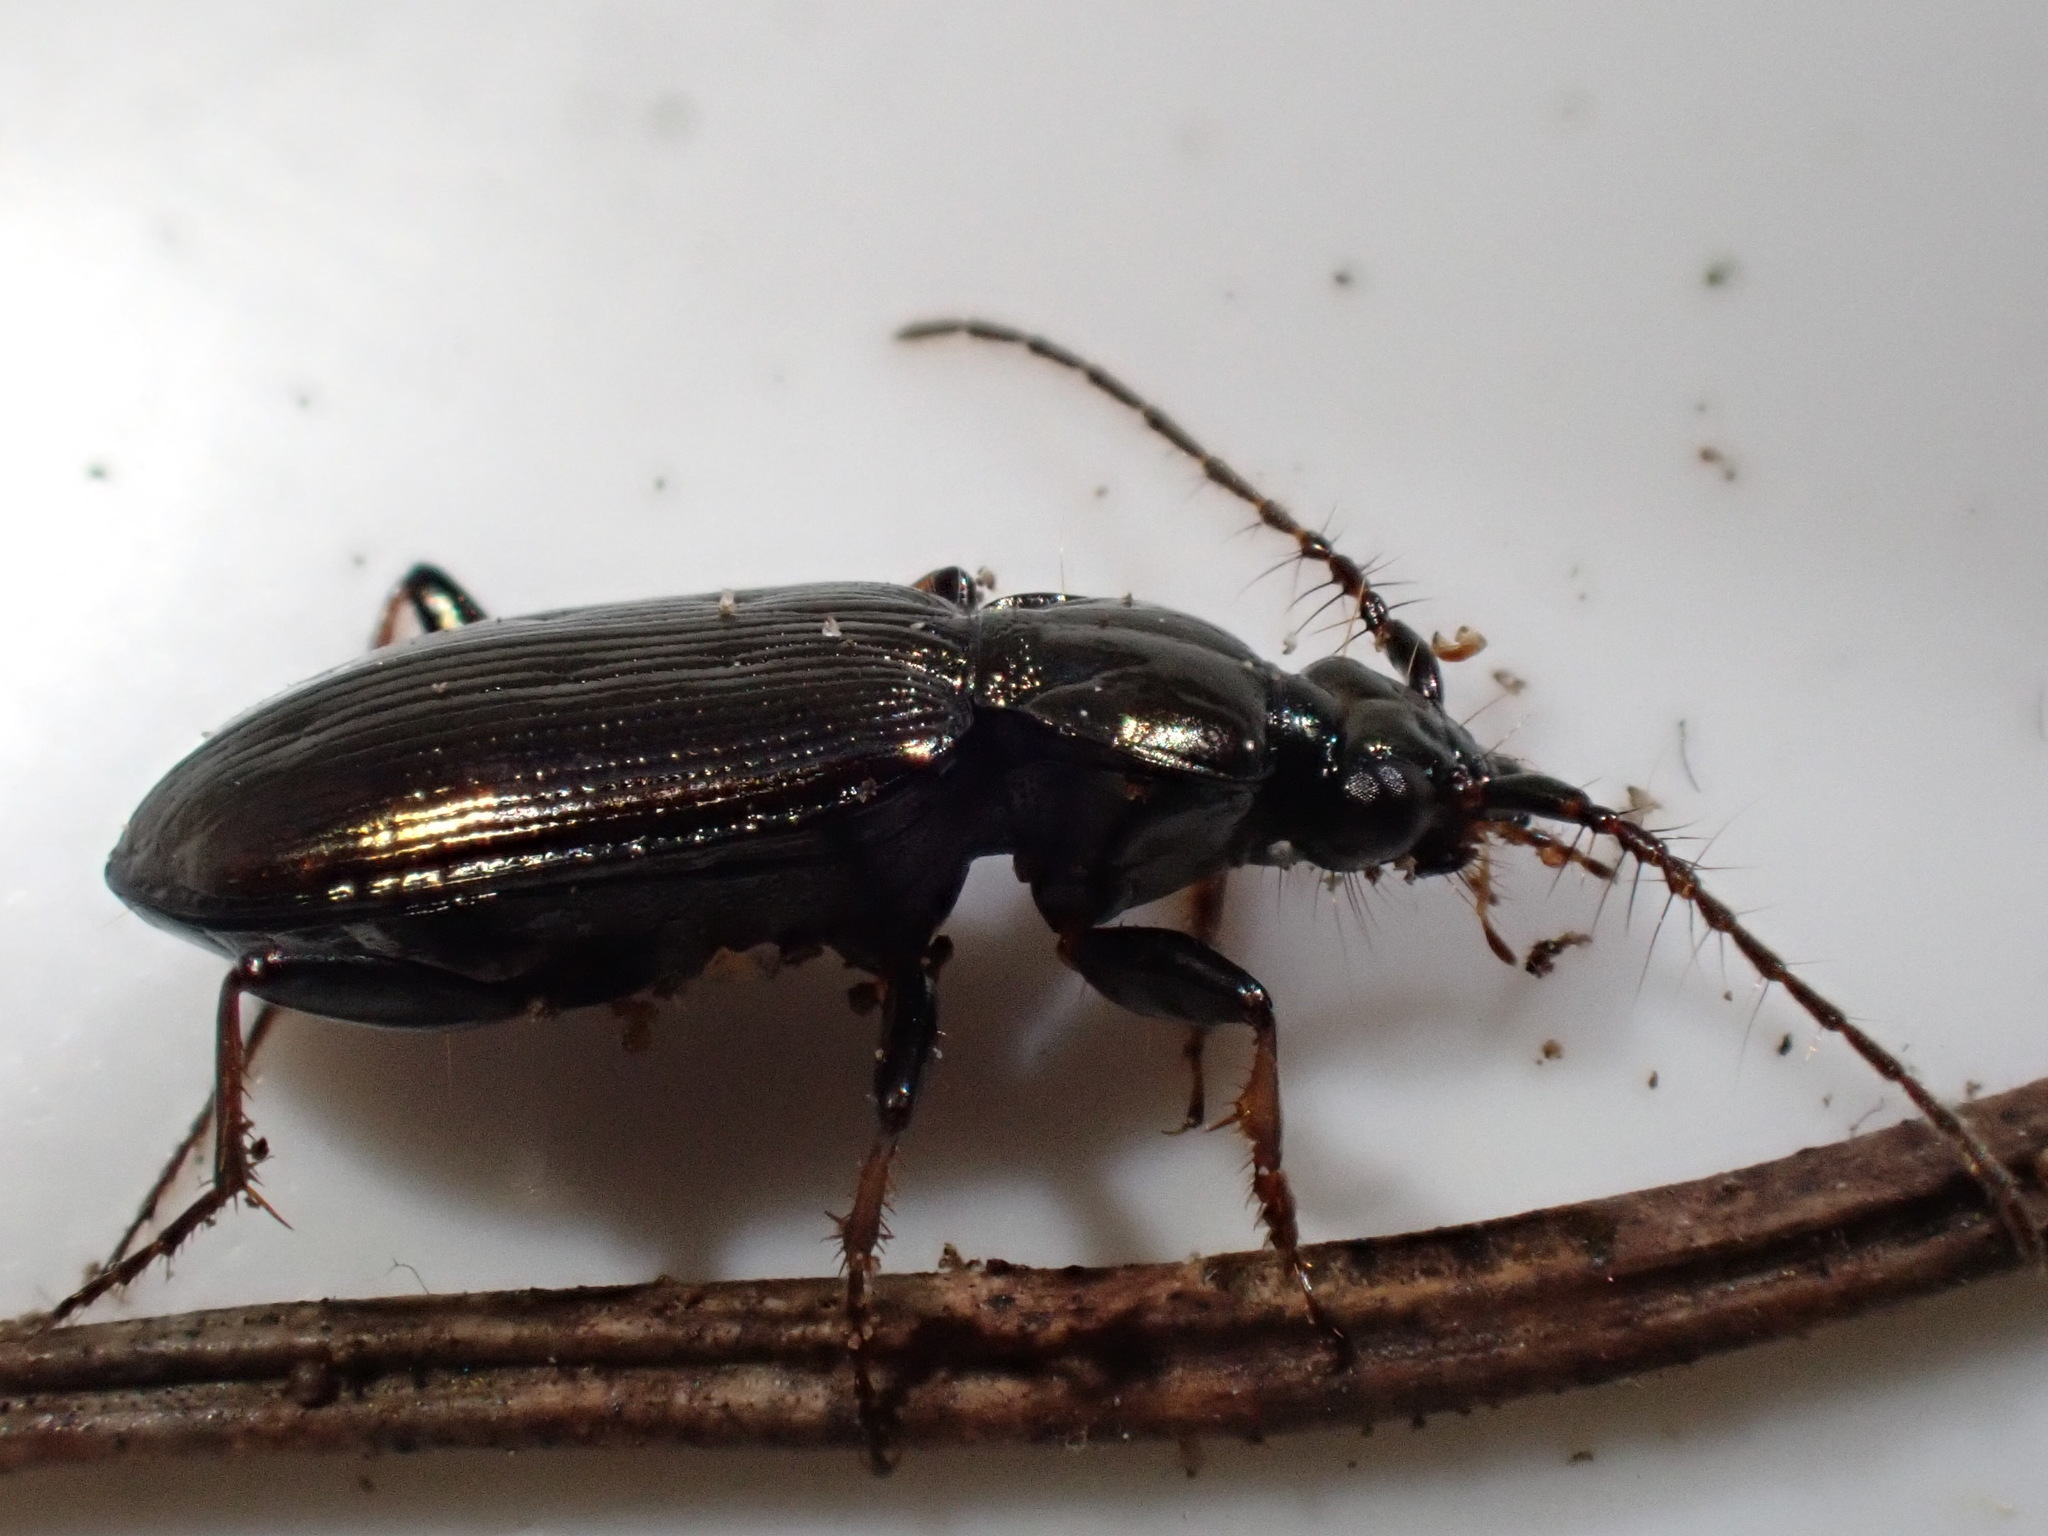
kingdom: Animalia
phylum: Arthropoda
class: Insecta
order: Coleoptera
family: Carabidae
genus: Loricera
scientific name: Loricera pilicornis
